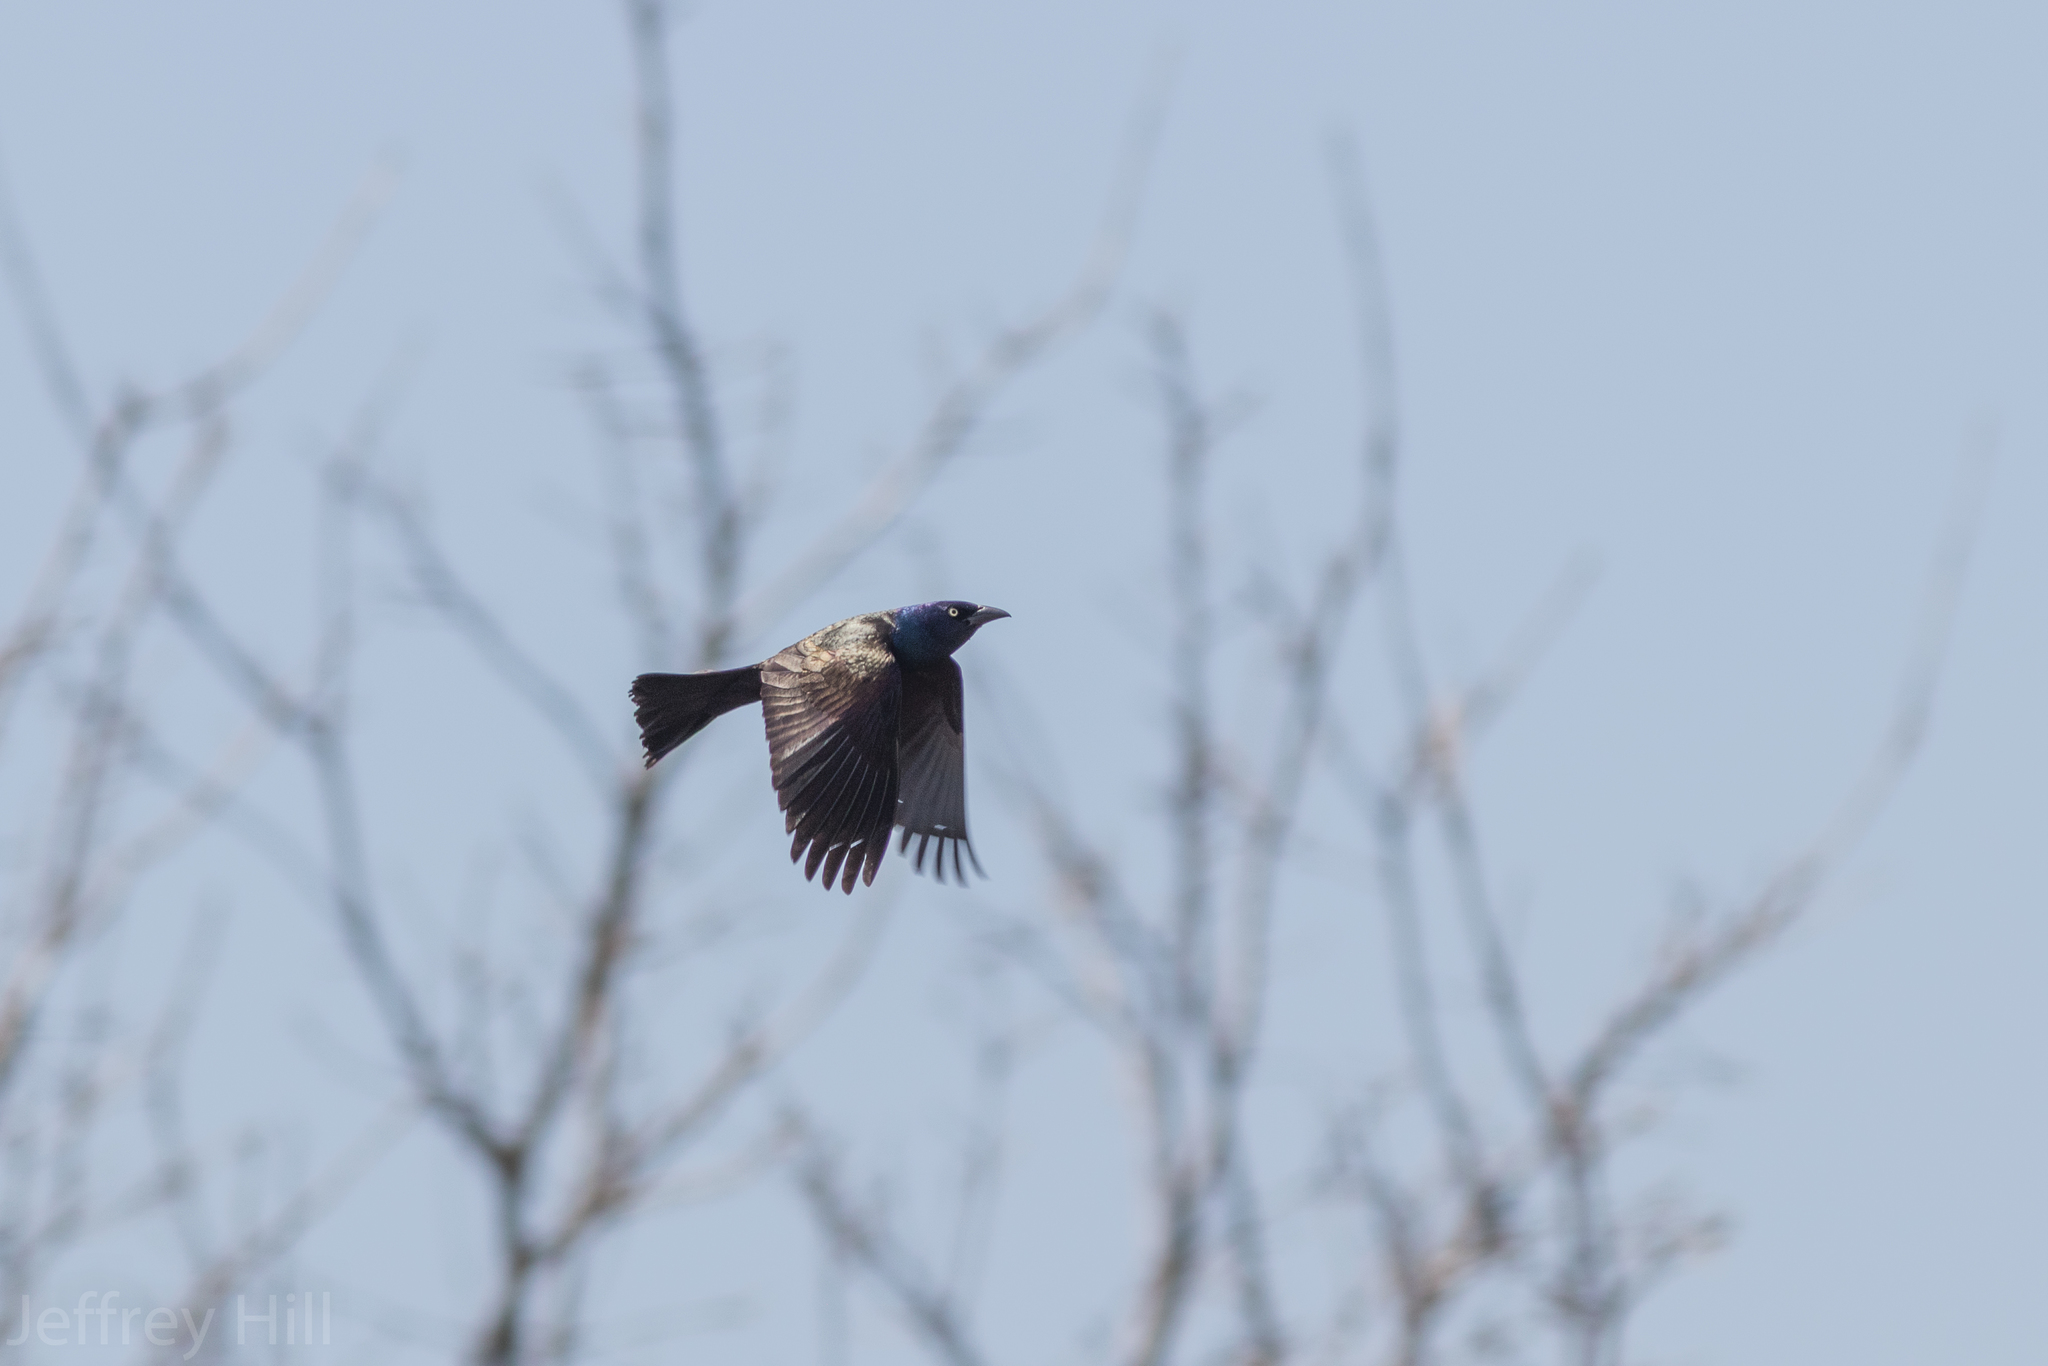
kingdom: Animalia
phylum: Chordata
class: Aves
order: Passeriformes
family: Icteridae
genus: Quiscalus
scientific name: Quiscalus quiscula
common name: Common grackle
